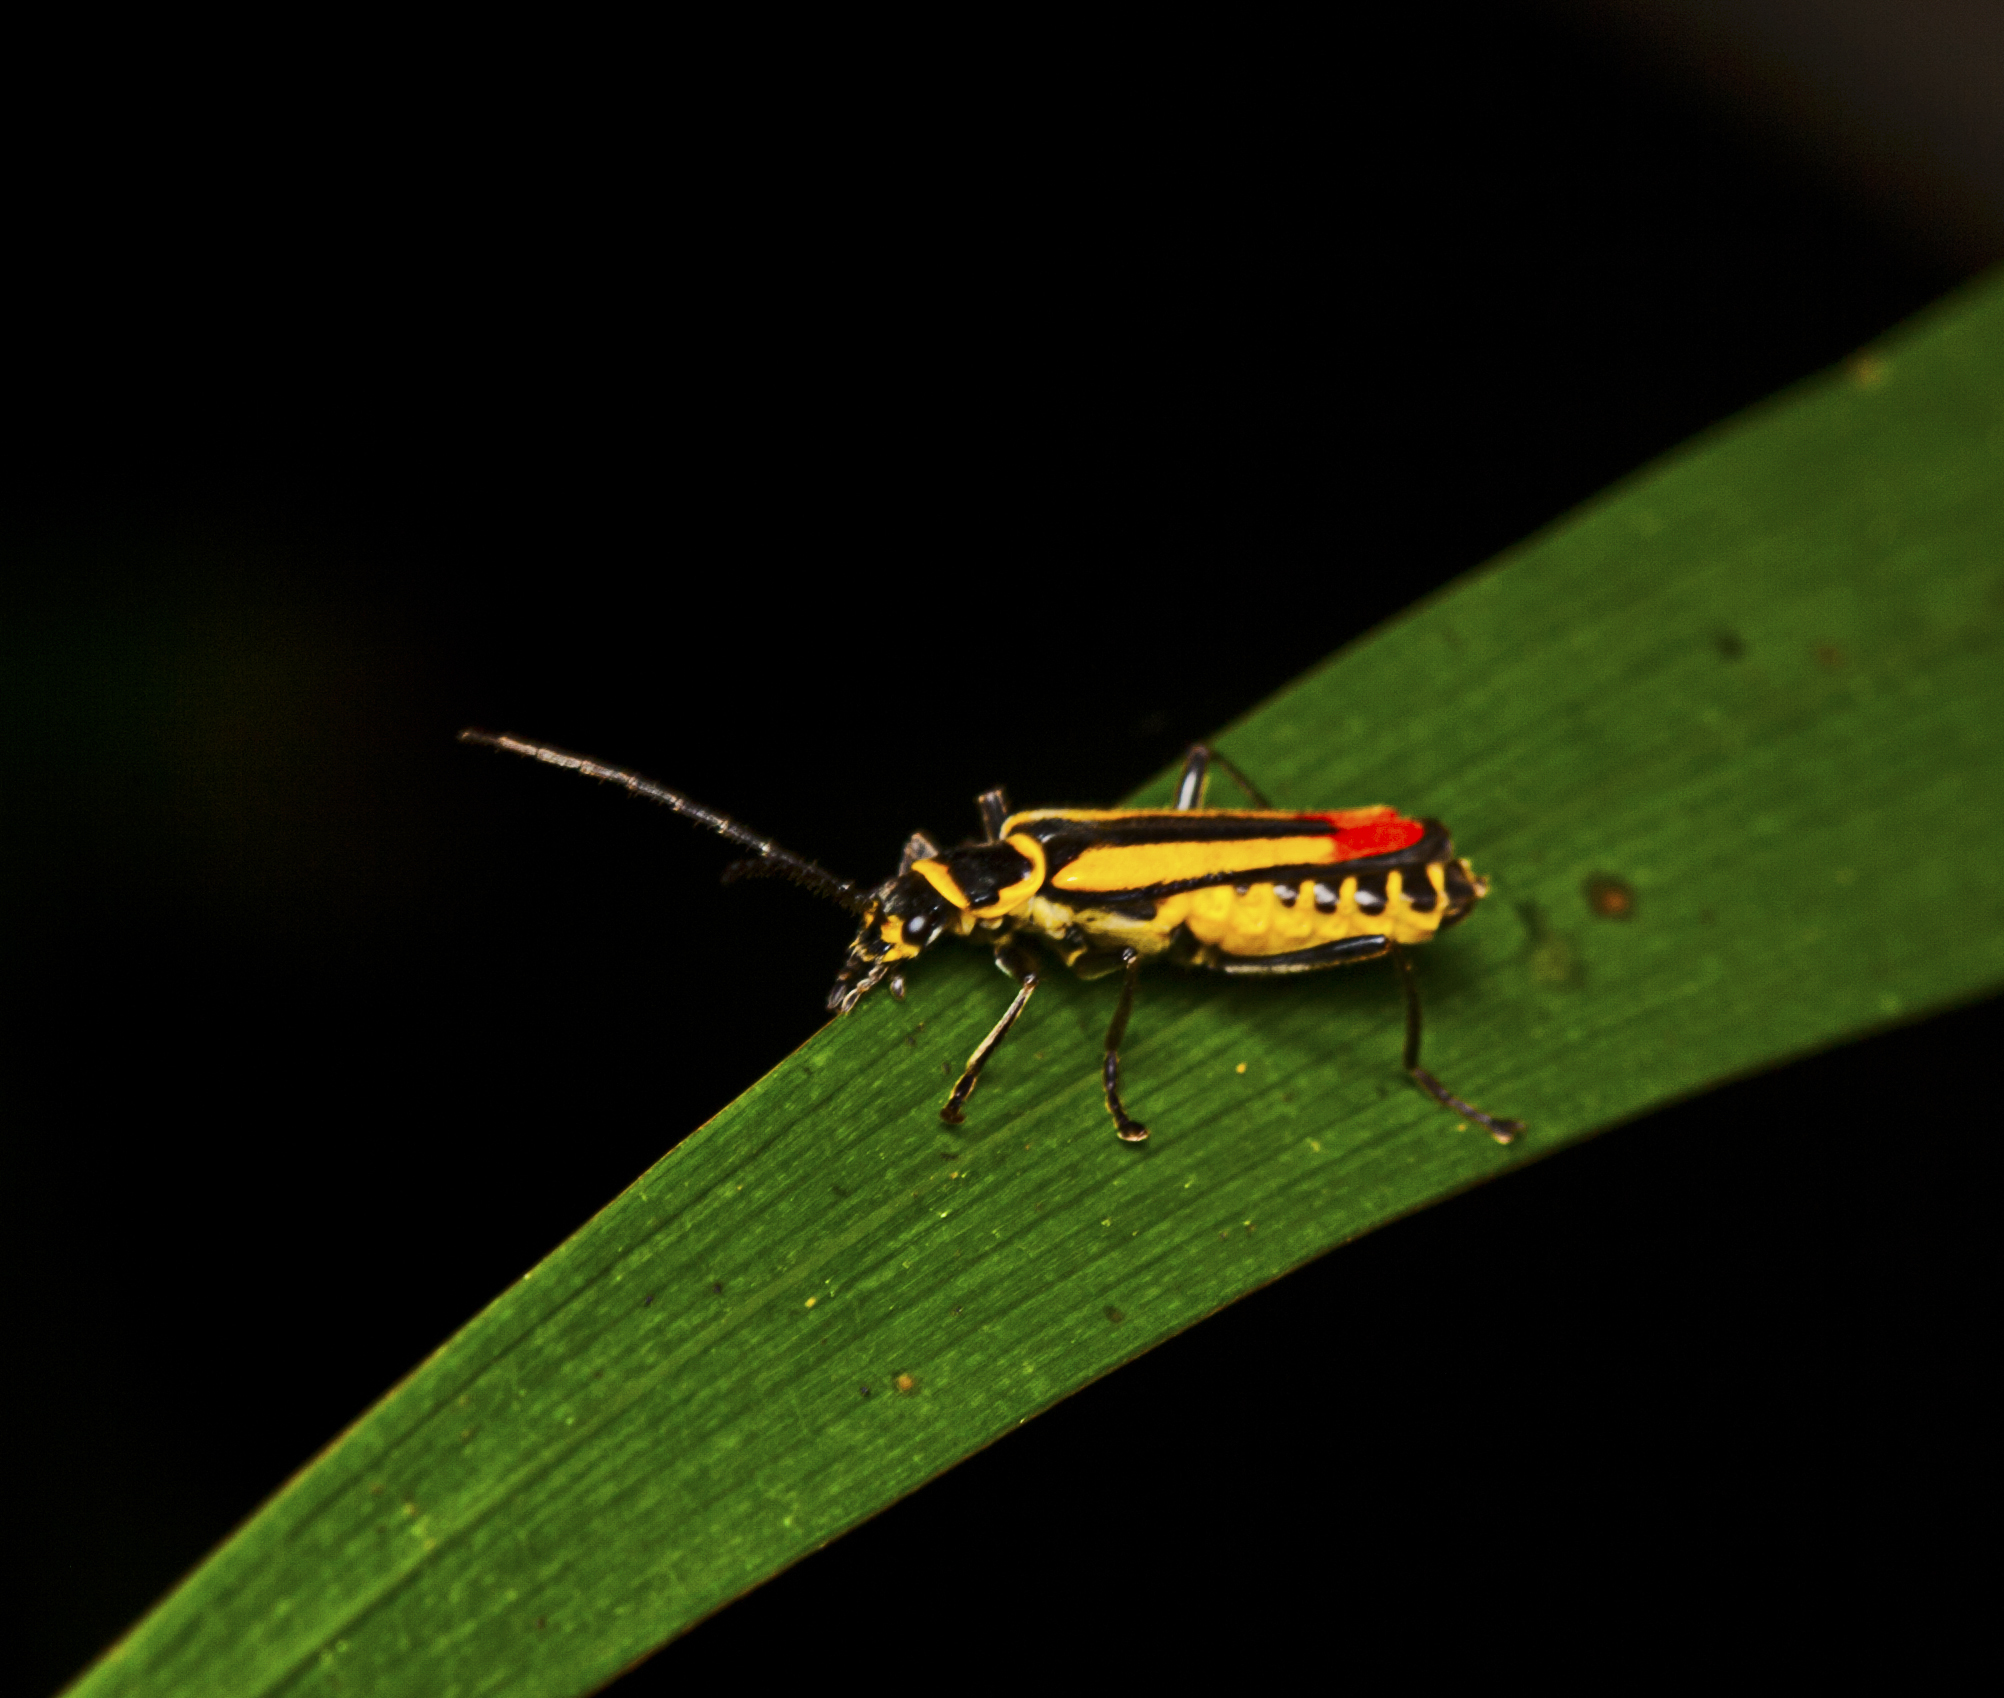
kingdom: Animalia
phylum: Arthropoda
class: Insecta
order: Coleoptera
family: Cantharidae
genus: Chauliognathus
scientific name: Chauliognathus
